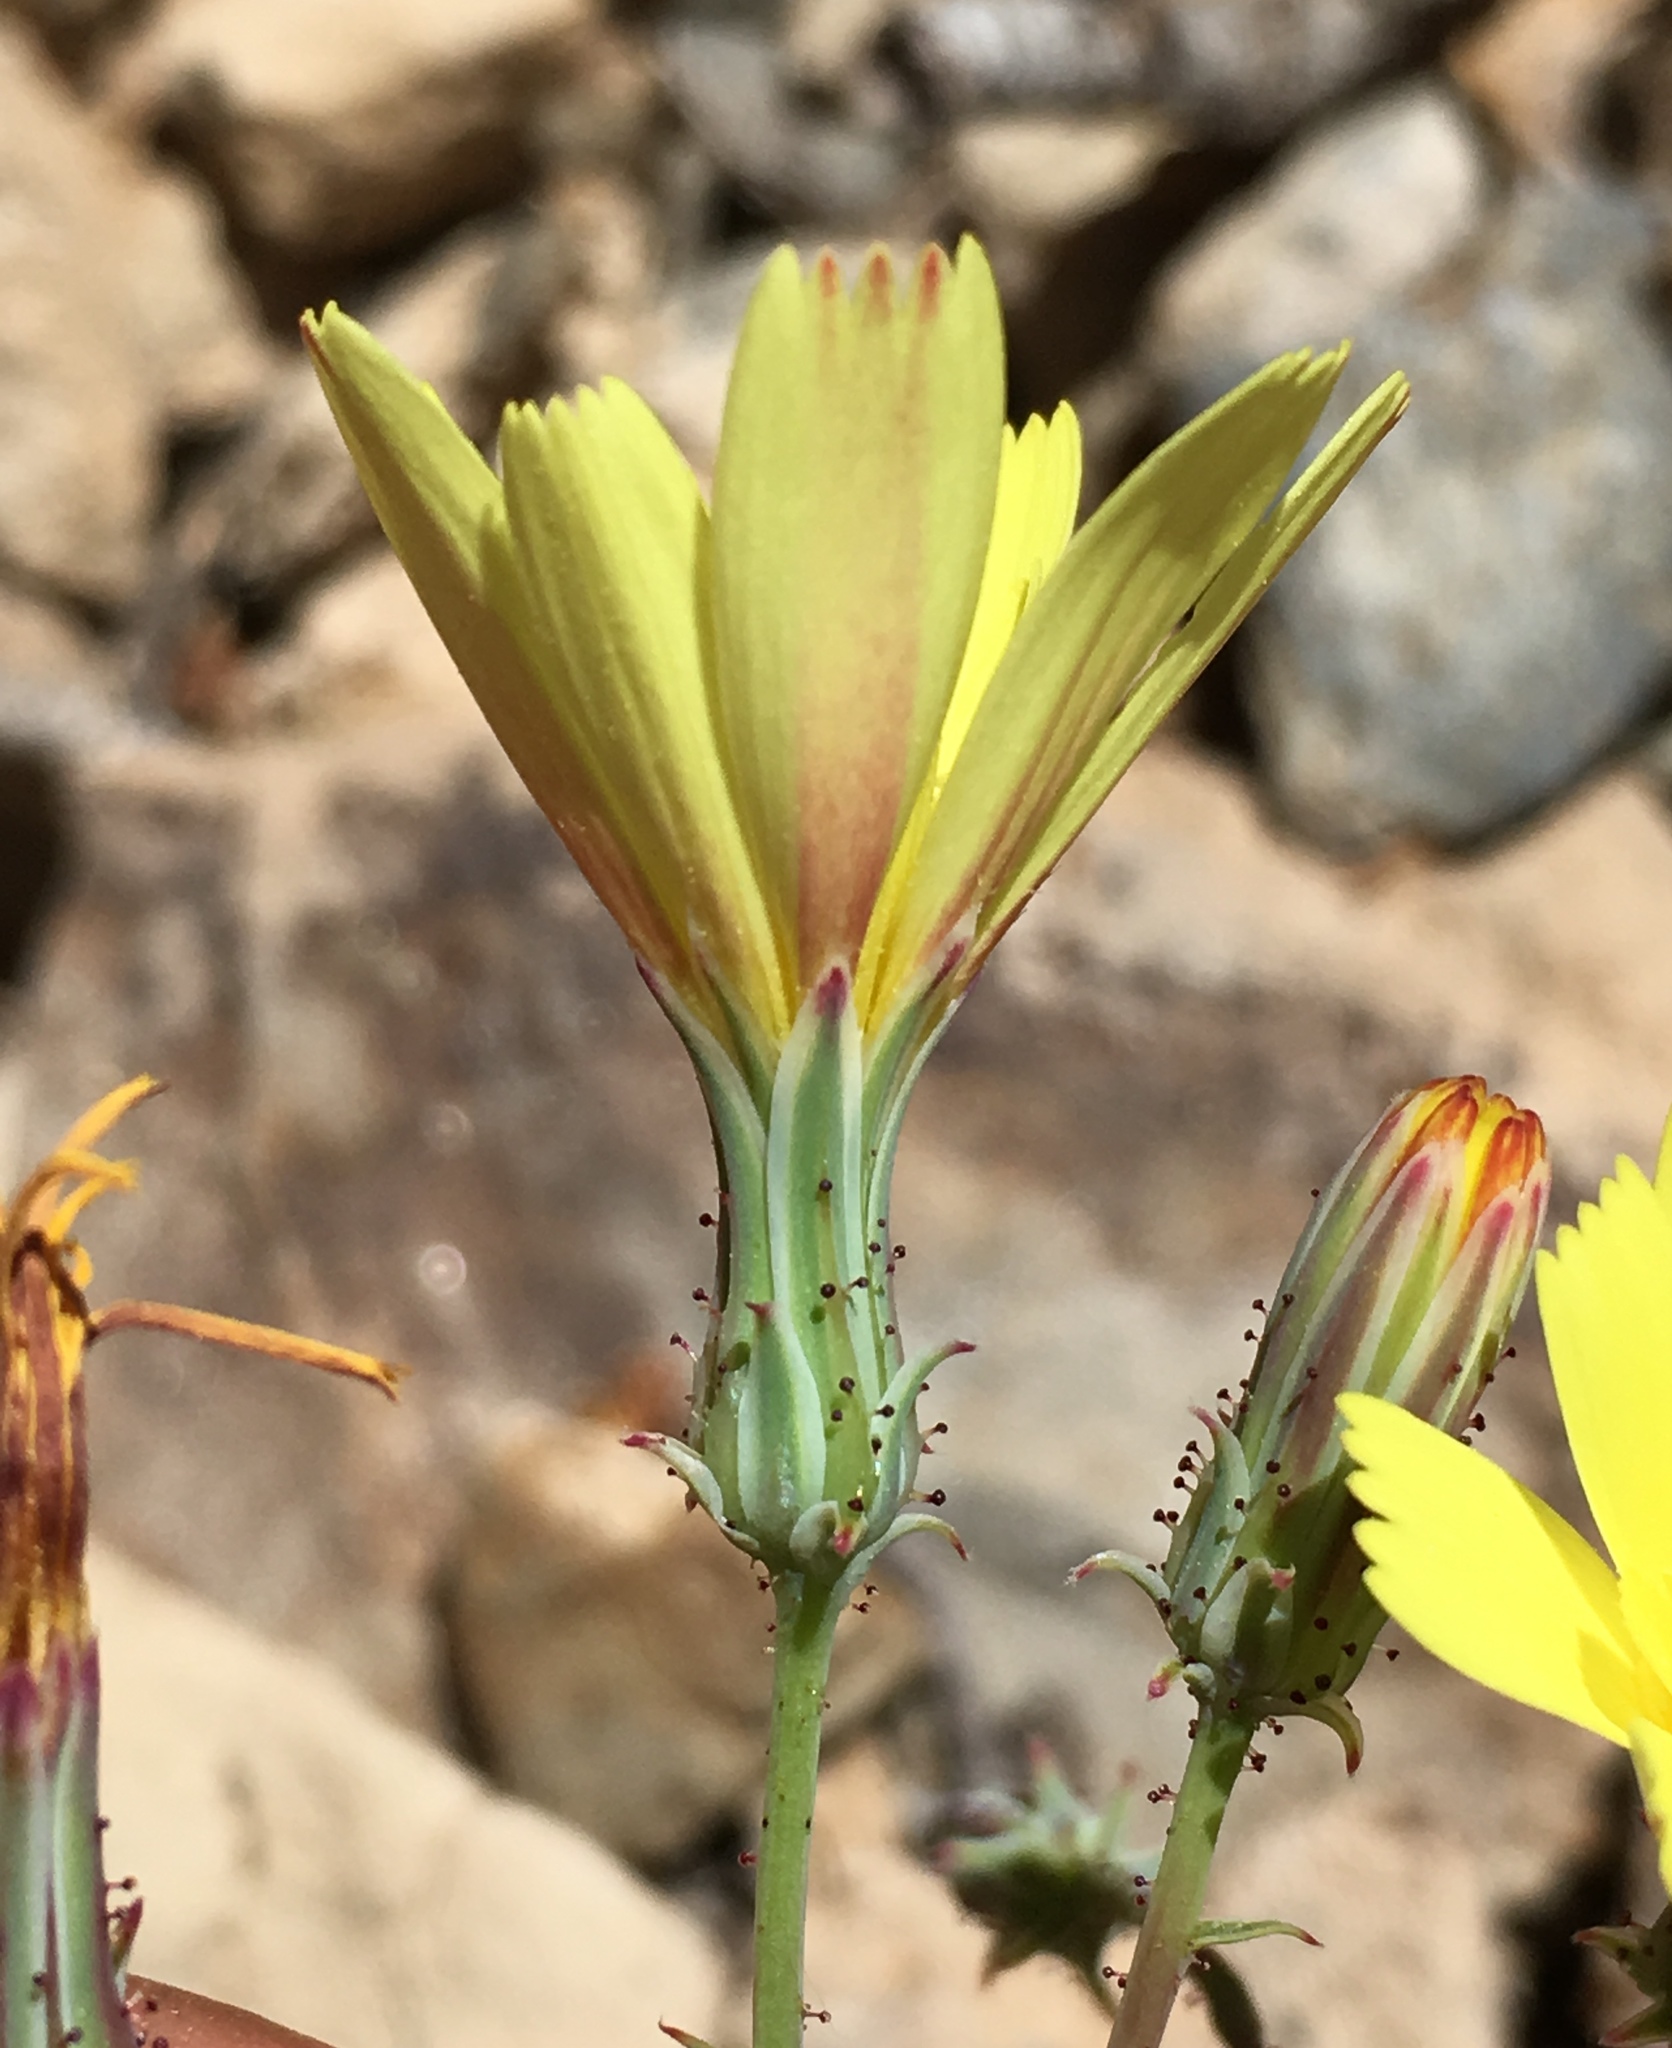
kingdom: Plantae
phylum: Tracheophyta
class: Magnoliopsida
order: Asterales
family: Asteraceae
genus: Calycoseris
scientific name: Calycoseris parryi
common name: Yellow tackstem
